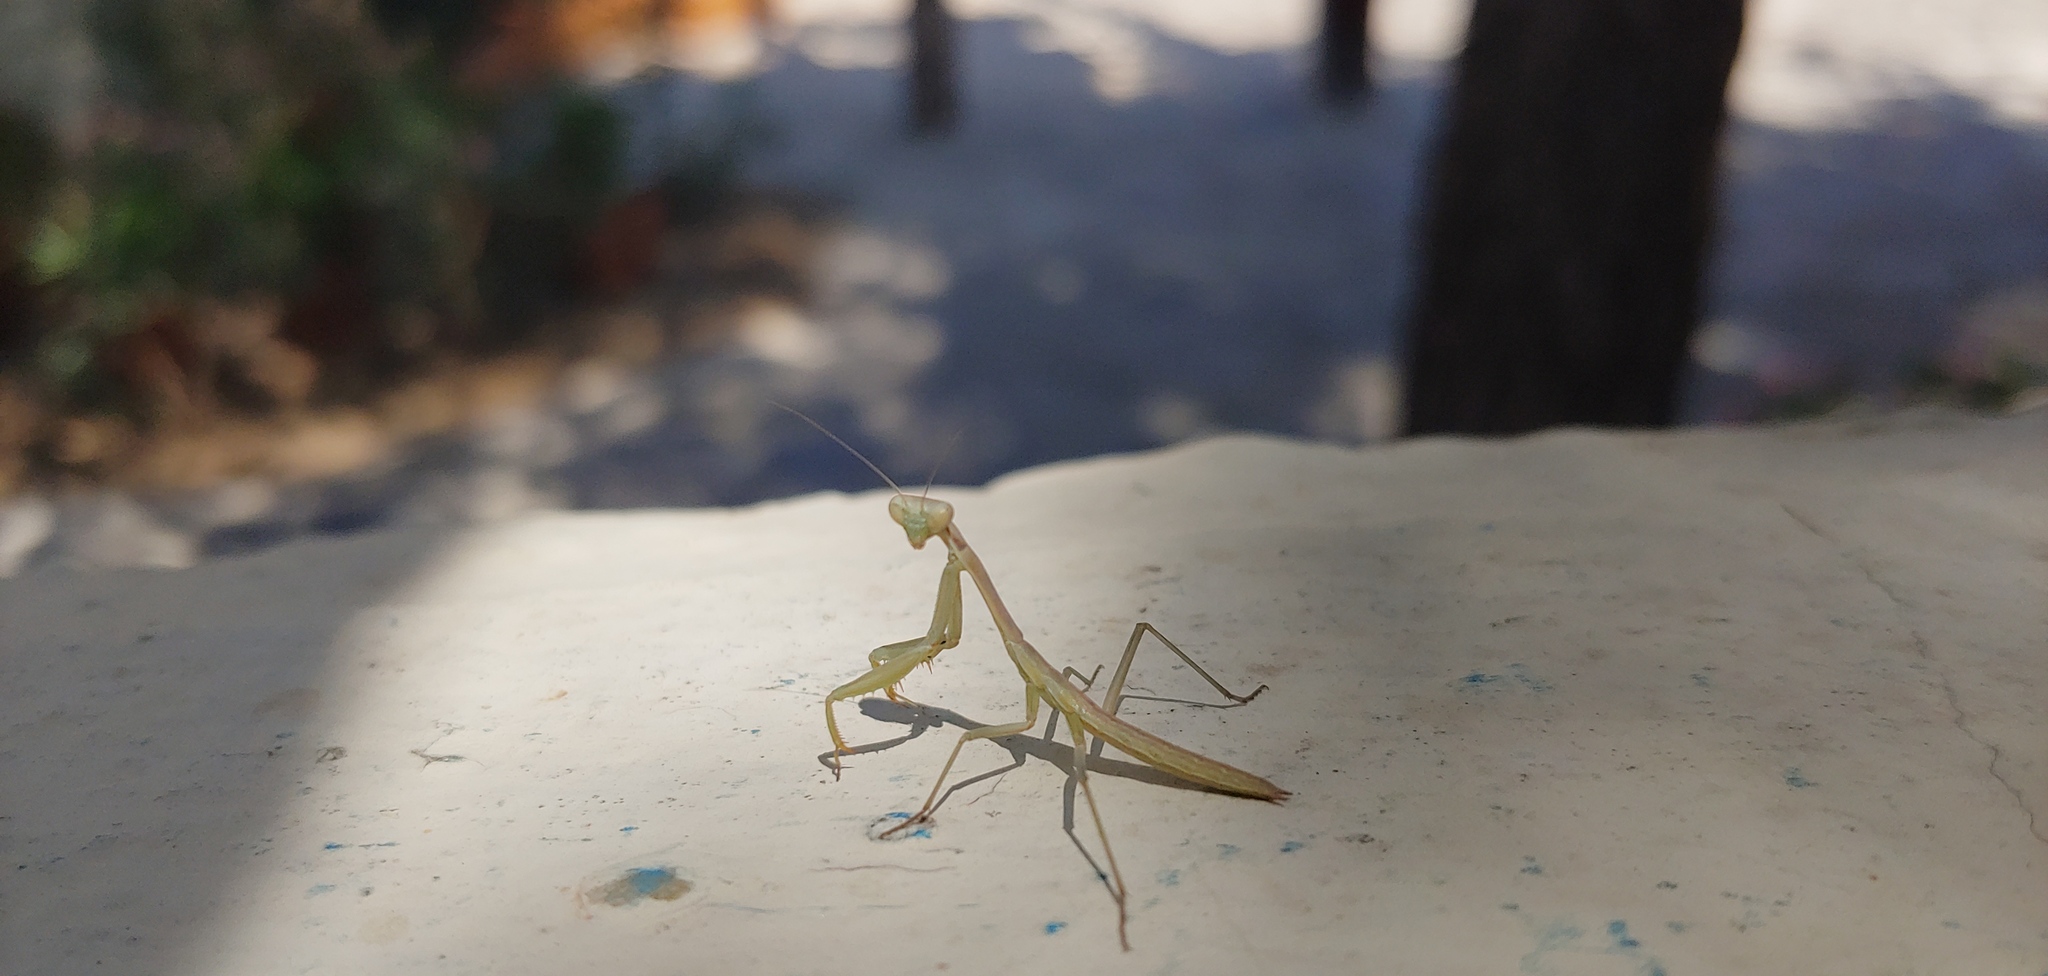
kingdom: Animalia
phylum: Arthropoda
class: Insecta
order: Mantodea
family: Eremiaphilidae
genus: Iris
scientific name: Iris oratoria
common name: Mediterranean mantis
